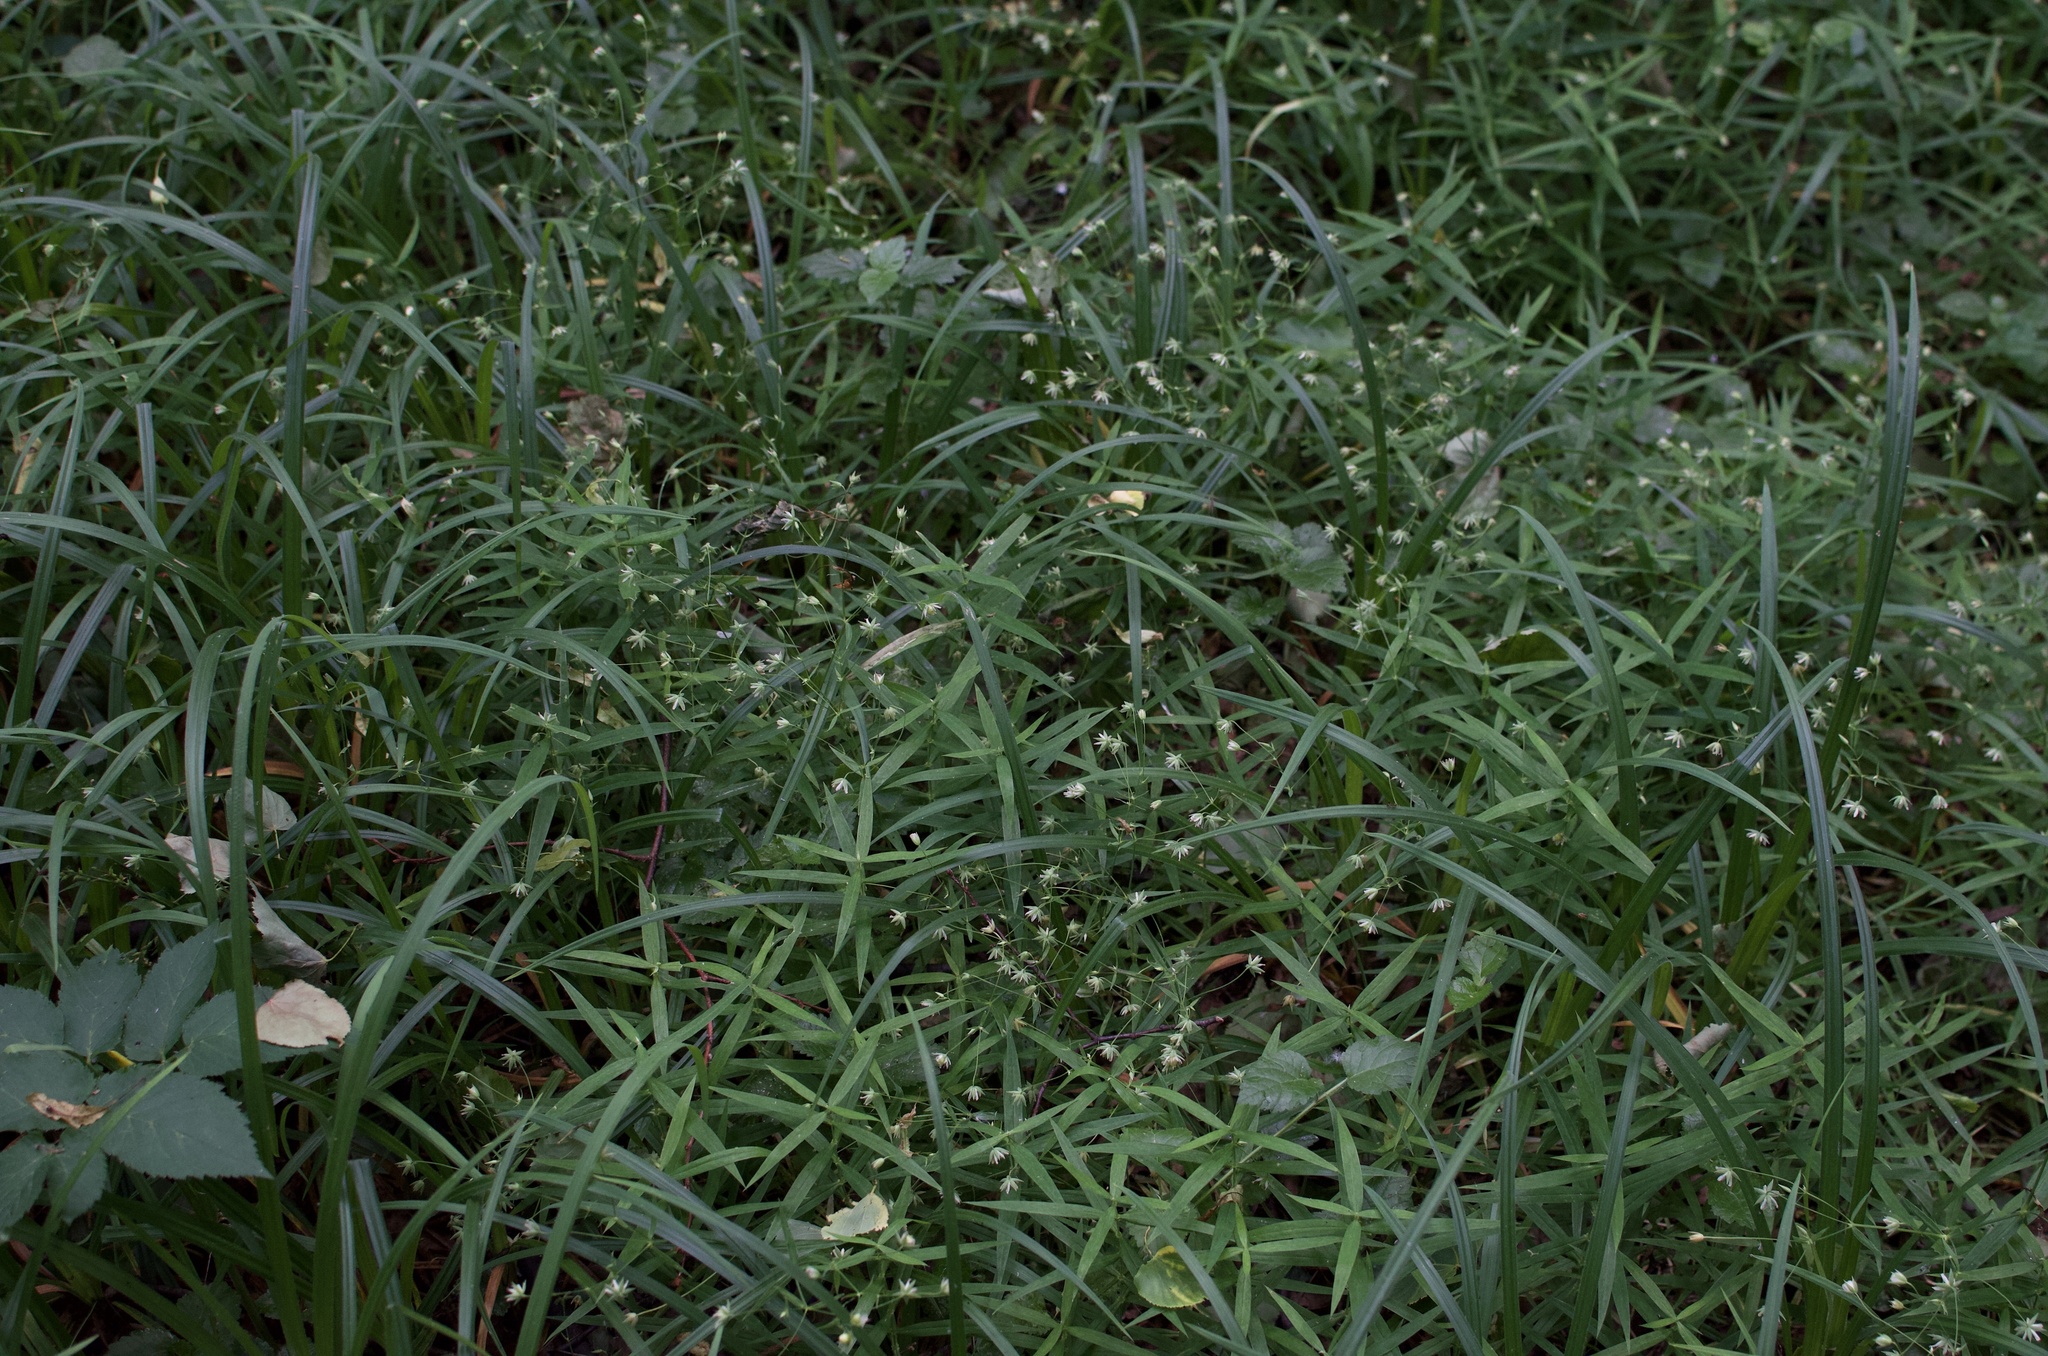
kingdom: Plantae
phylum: Tracheophyta
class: Magnoliopsida
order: Caryophyllales
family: Caryophyllaceae
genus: Rabelera
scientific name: Rabelera holostea
